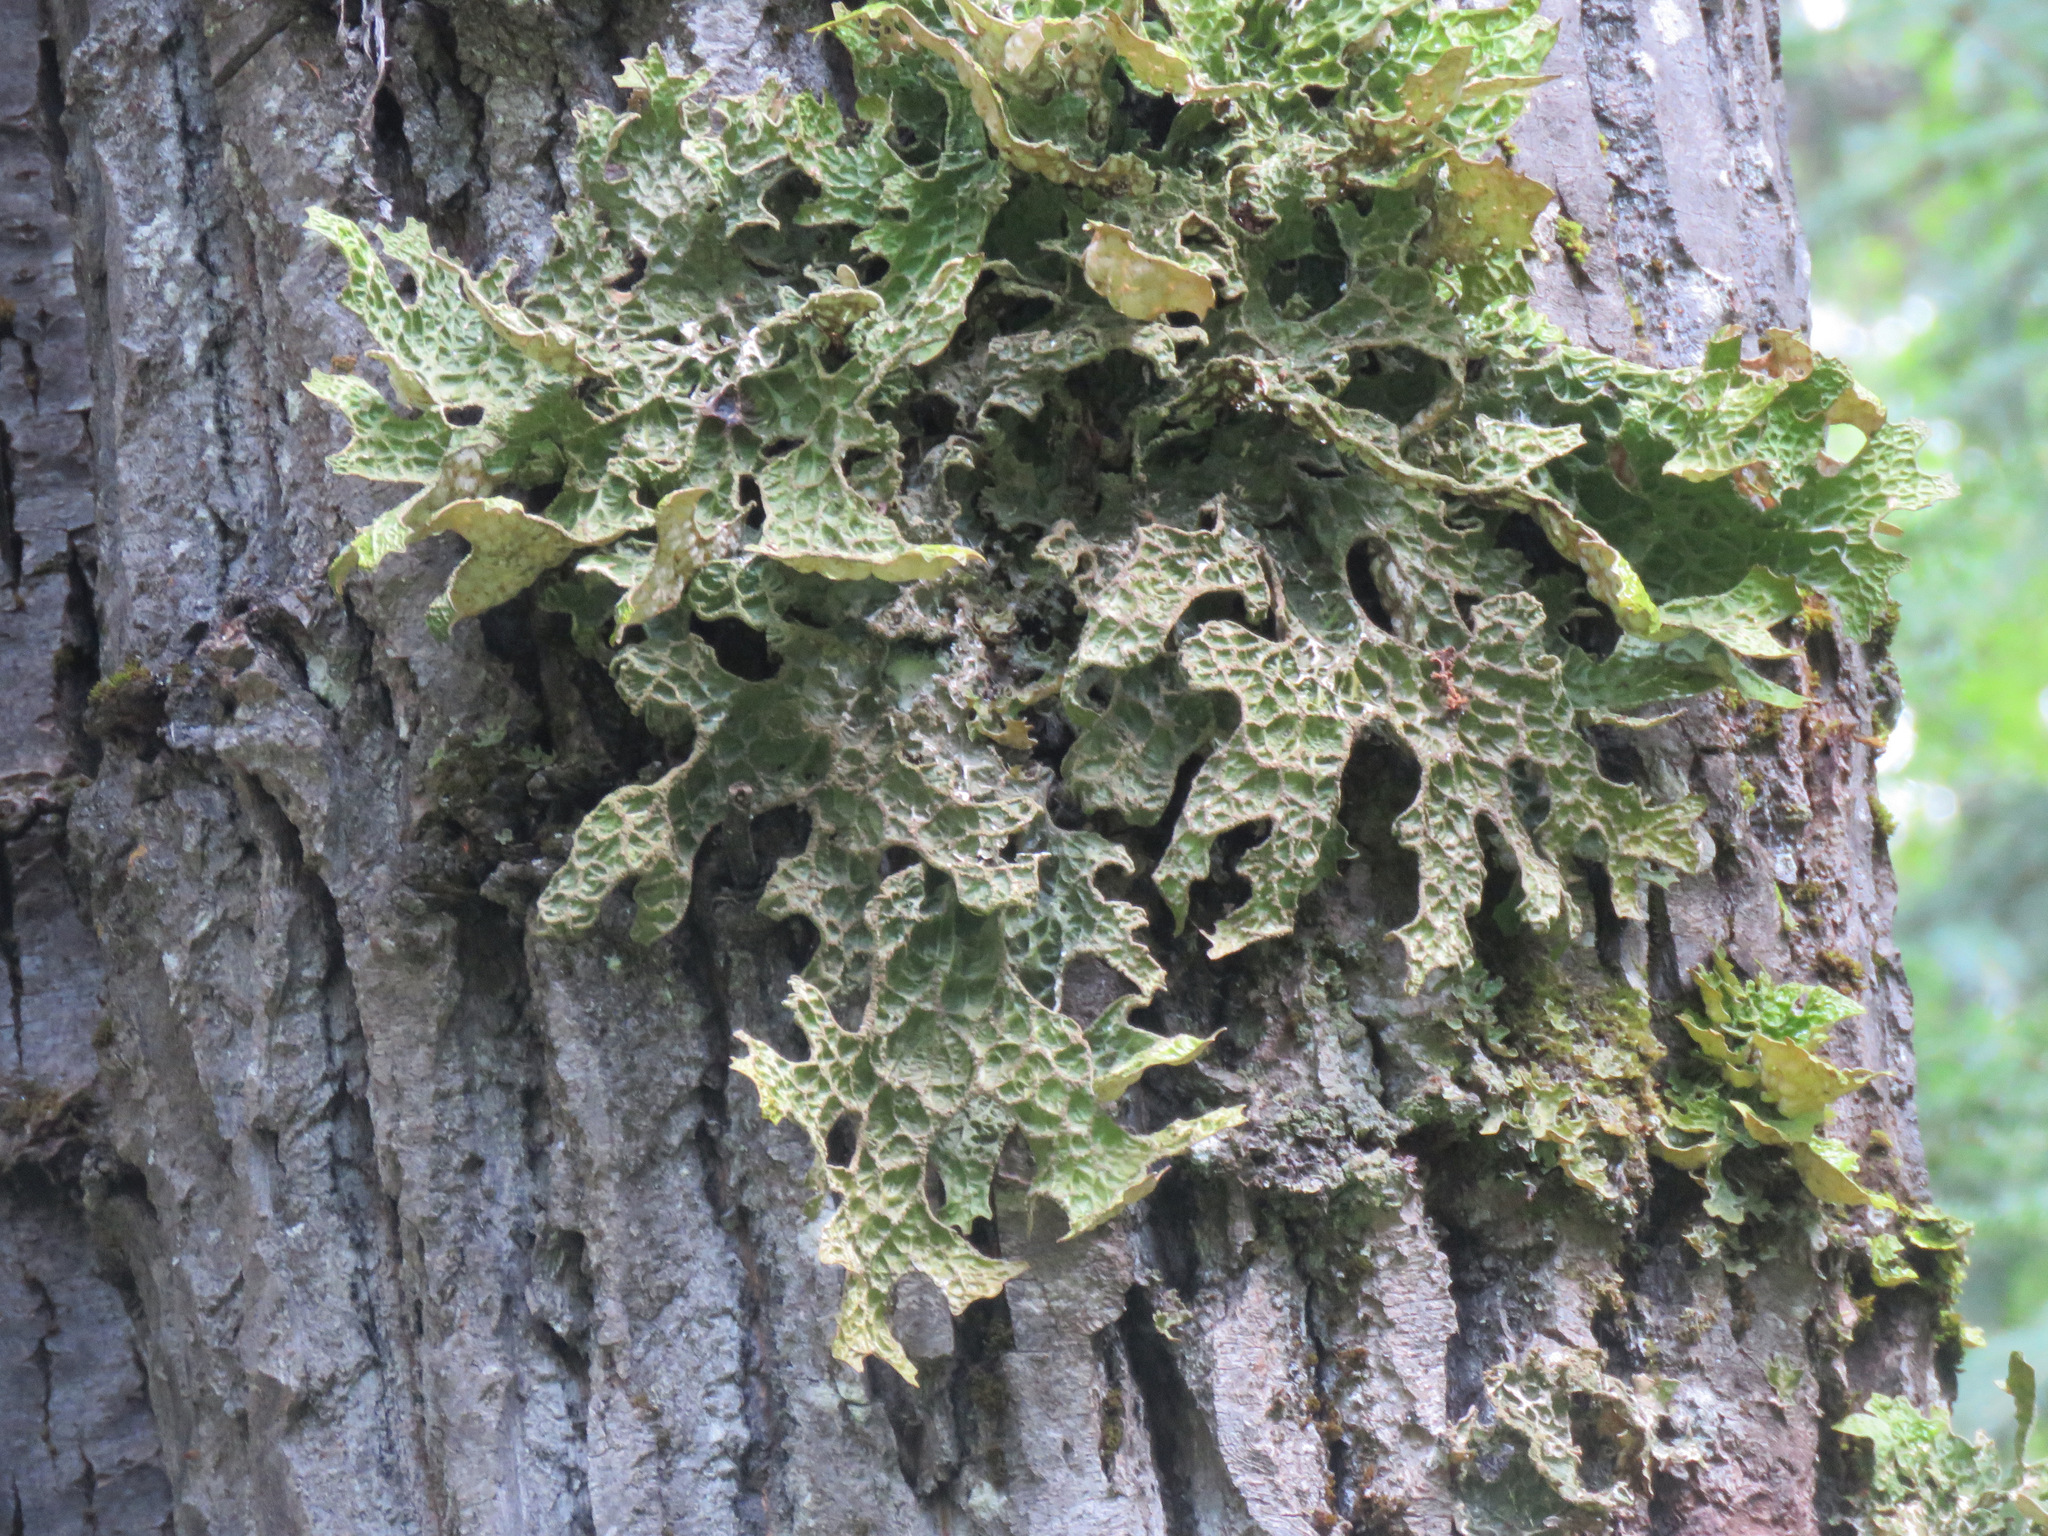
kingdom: Fungi
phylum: Ascomycota
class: Lecanoromycetes
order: Peltigerales
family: Lobariaceae
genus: Lobaria
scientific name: Lobaria pulmonaria
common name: Lungwort
